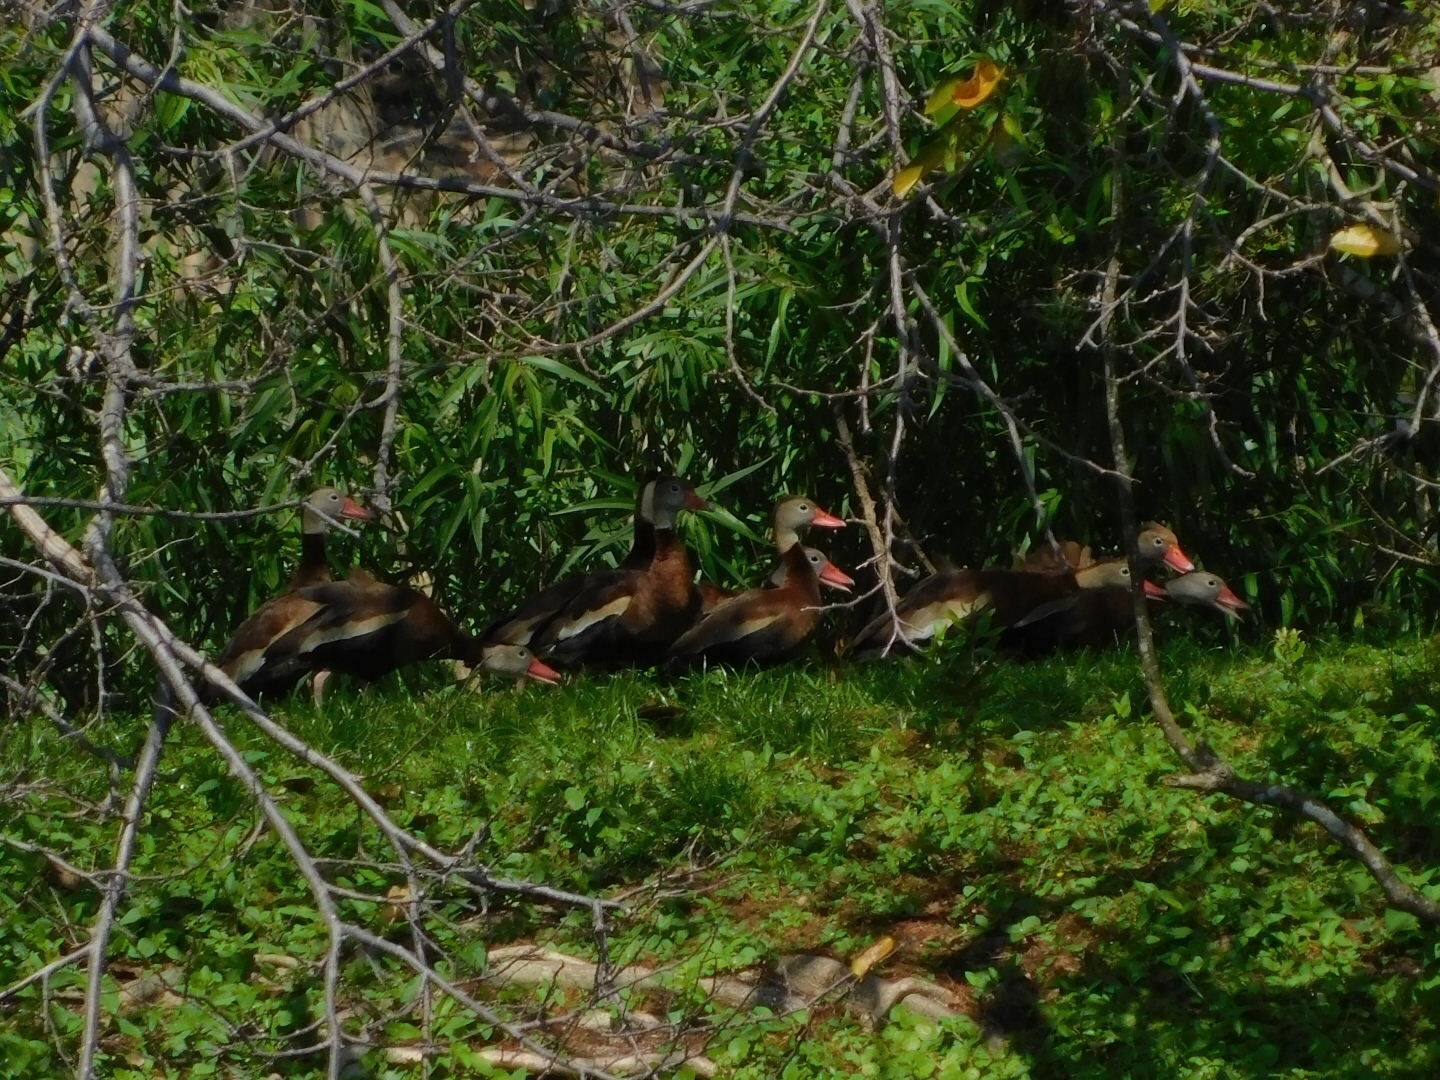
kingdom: Animalia
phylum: Chordata
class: Aves
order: Anseriformes
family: Anatidae
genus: Dendrocygna
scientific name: Dendrocygna autumnalis
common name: Black-bellied whistling duck
